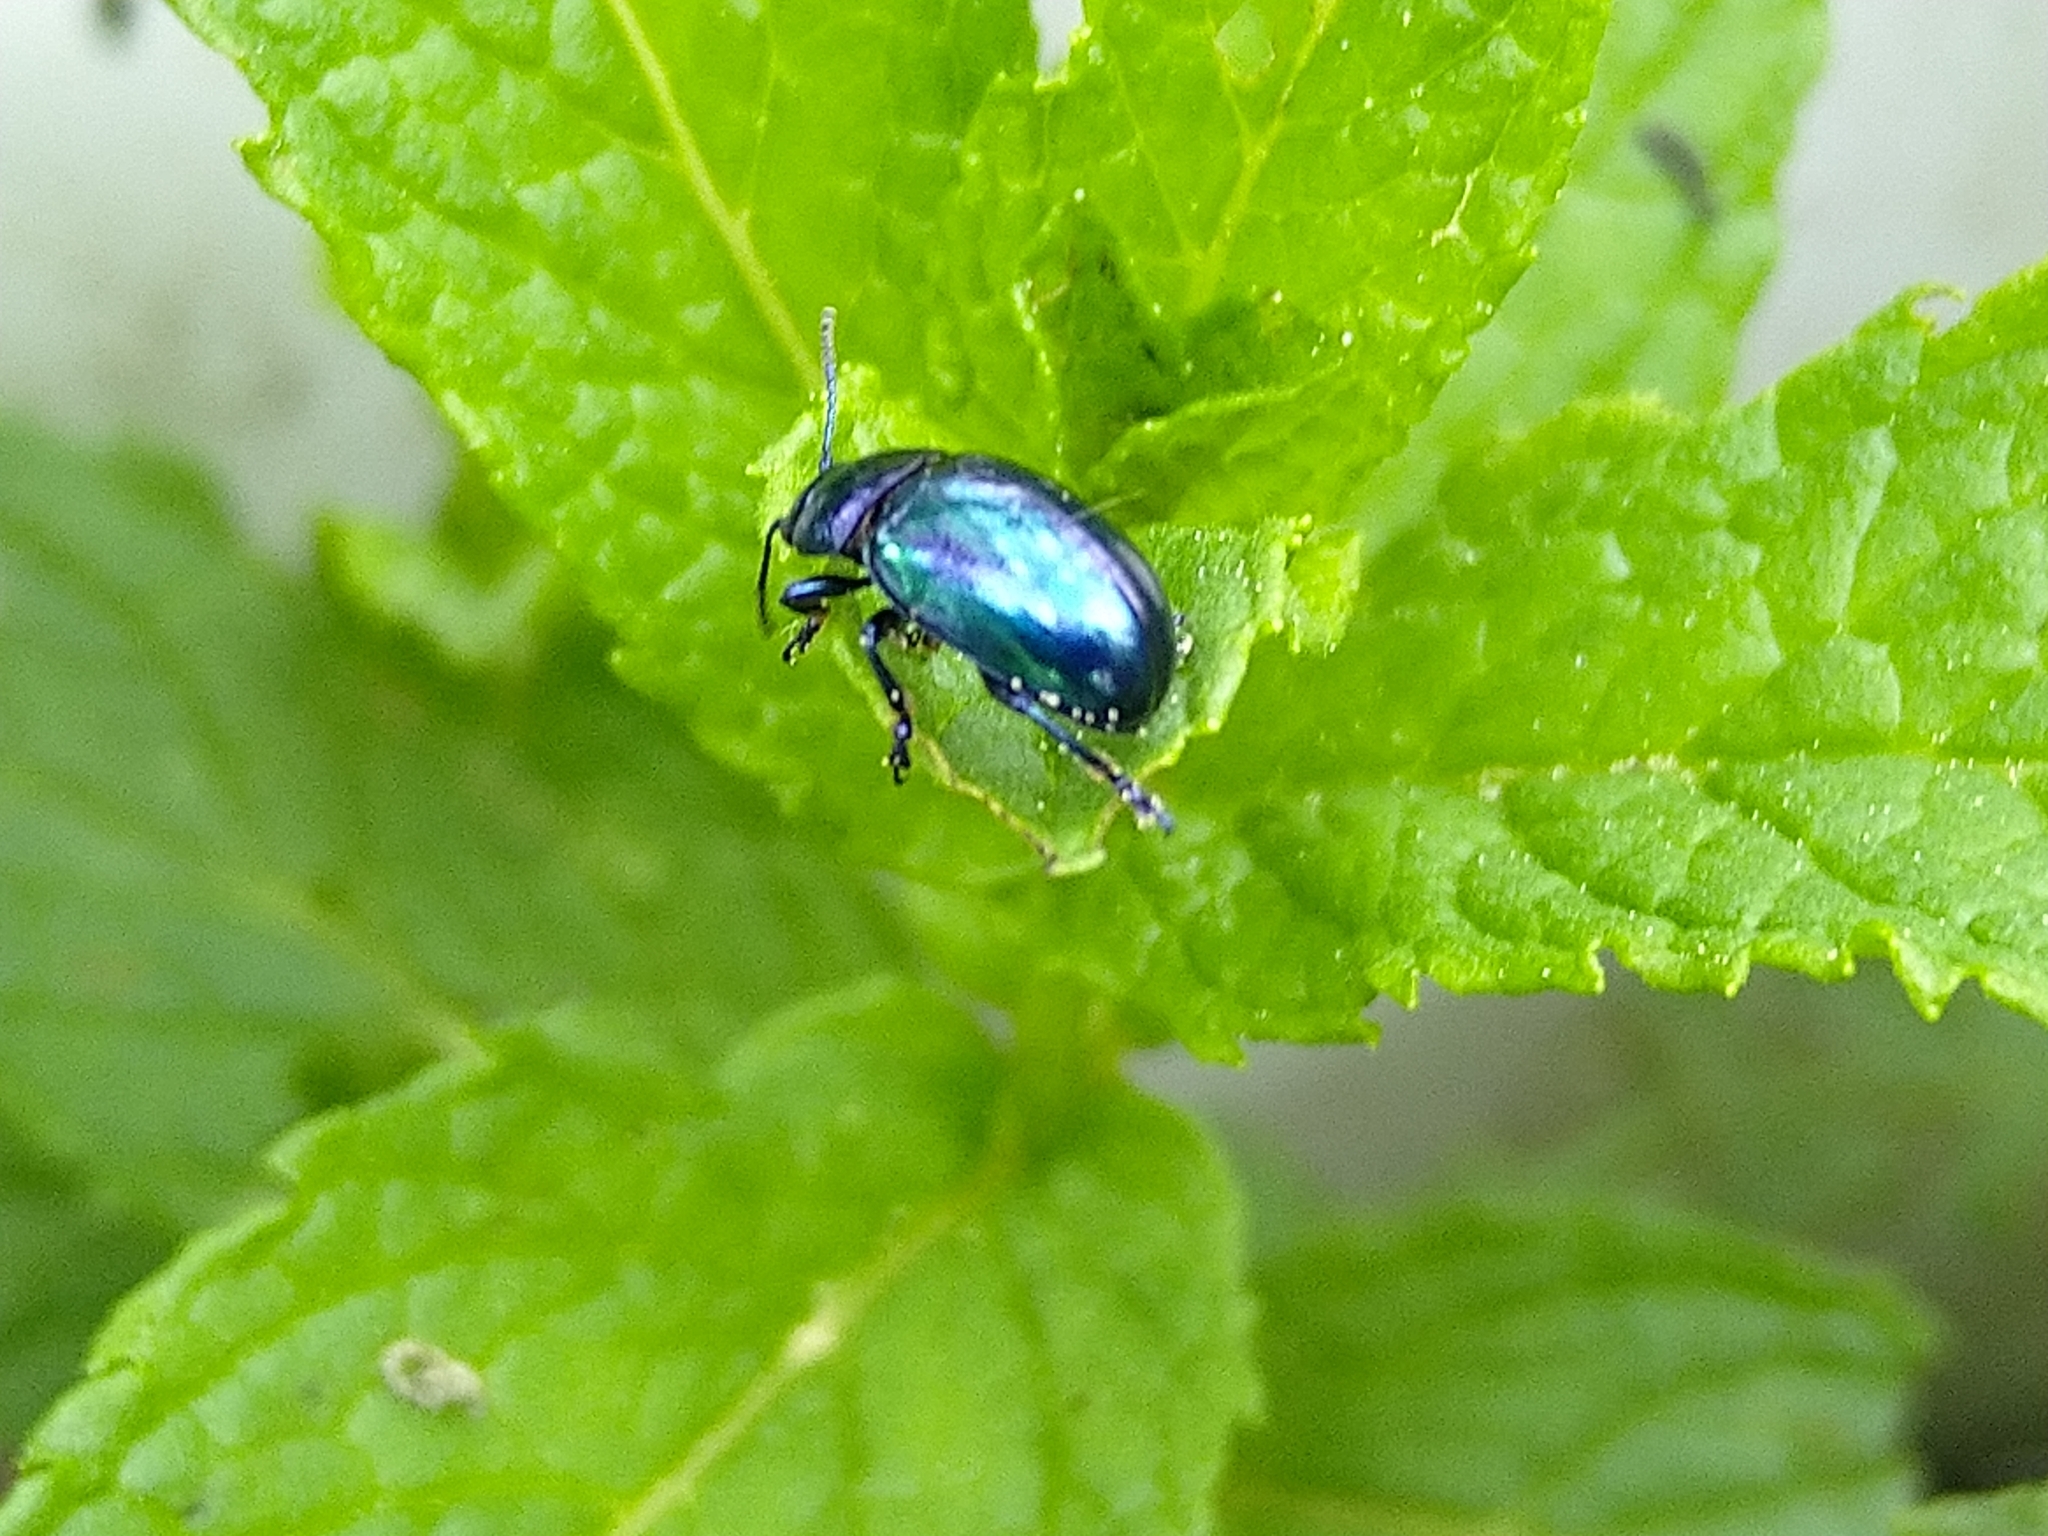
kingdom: Animalia
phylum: Arthropoda
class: Insecta
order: Coleoptera
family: Chrysomelidae
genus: Chrysolina
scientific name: Chrysolina coerulans
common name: Blue mint beetle
